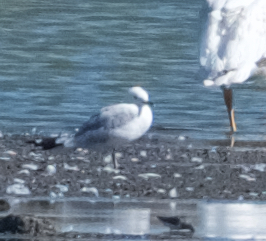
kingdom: Animalia
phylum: Chordata
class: Aves
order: Charadriiformes
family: Laridae
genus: Larus
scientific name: Larus delawarensis
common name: Ring-billed gull
